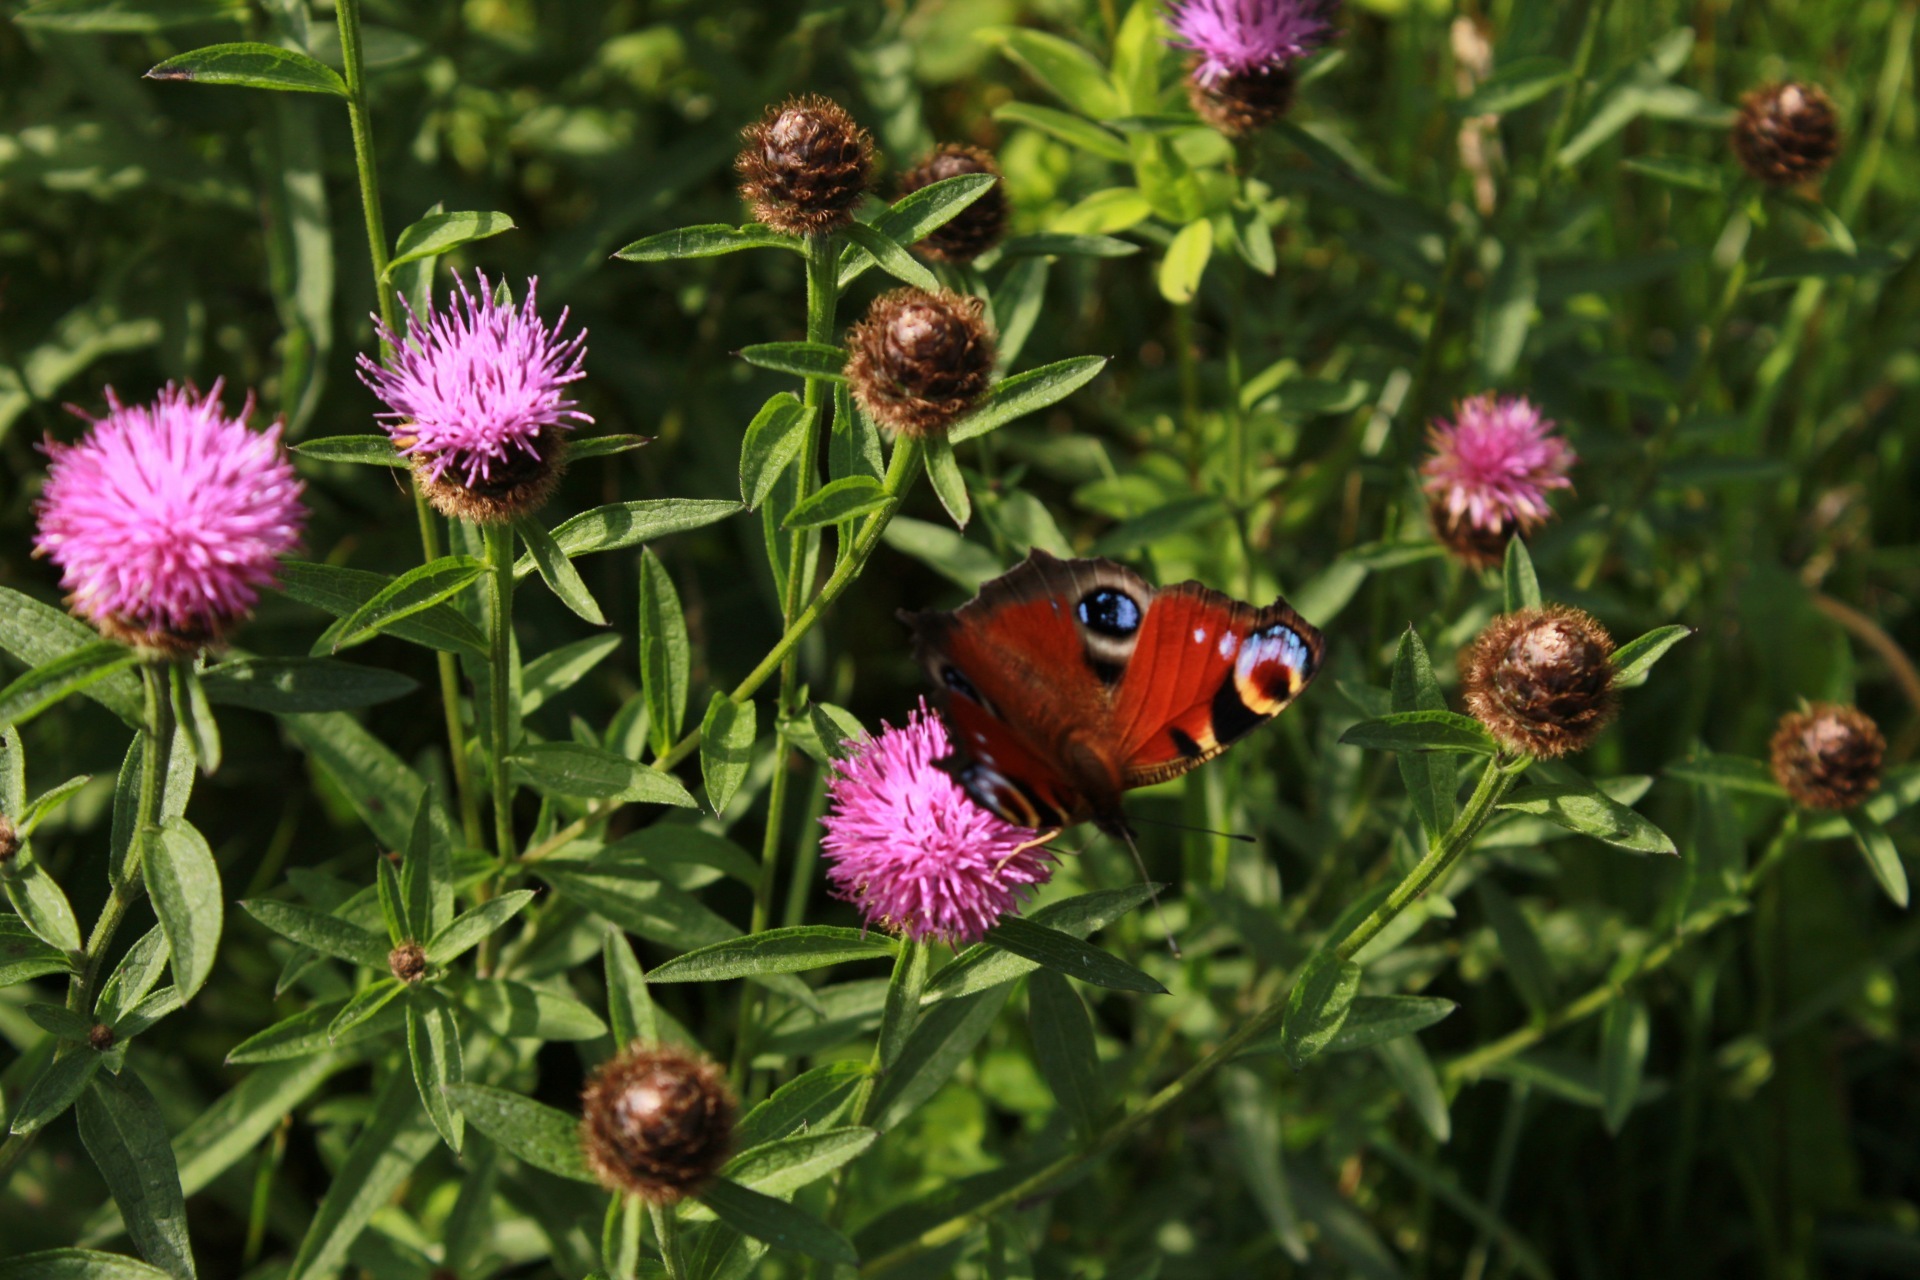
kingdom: Animalia
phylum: Arthropoda
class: Insecta
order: Lepidoptera
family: Nymphalidae
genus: Aglais
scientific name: Aglais io
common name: Peacock
